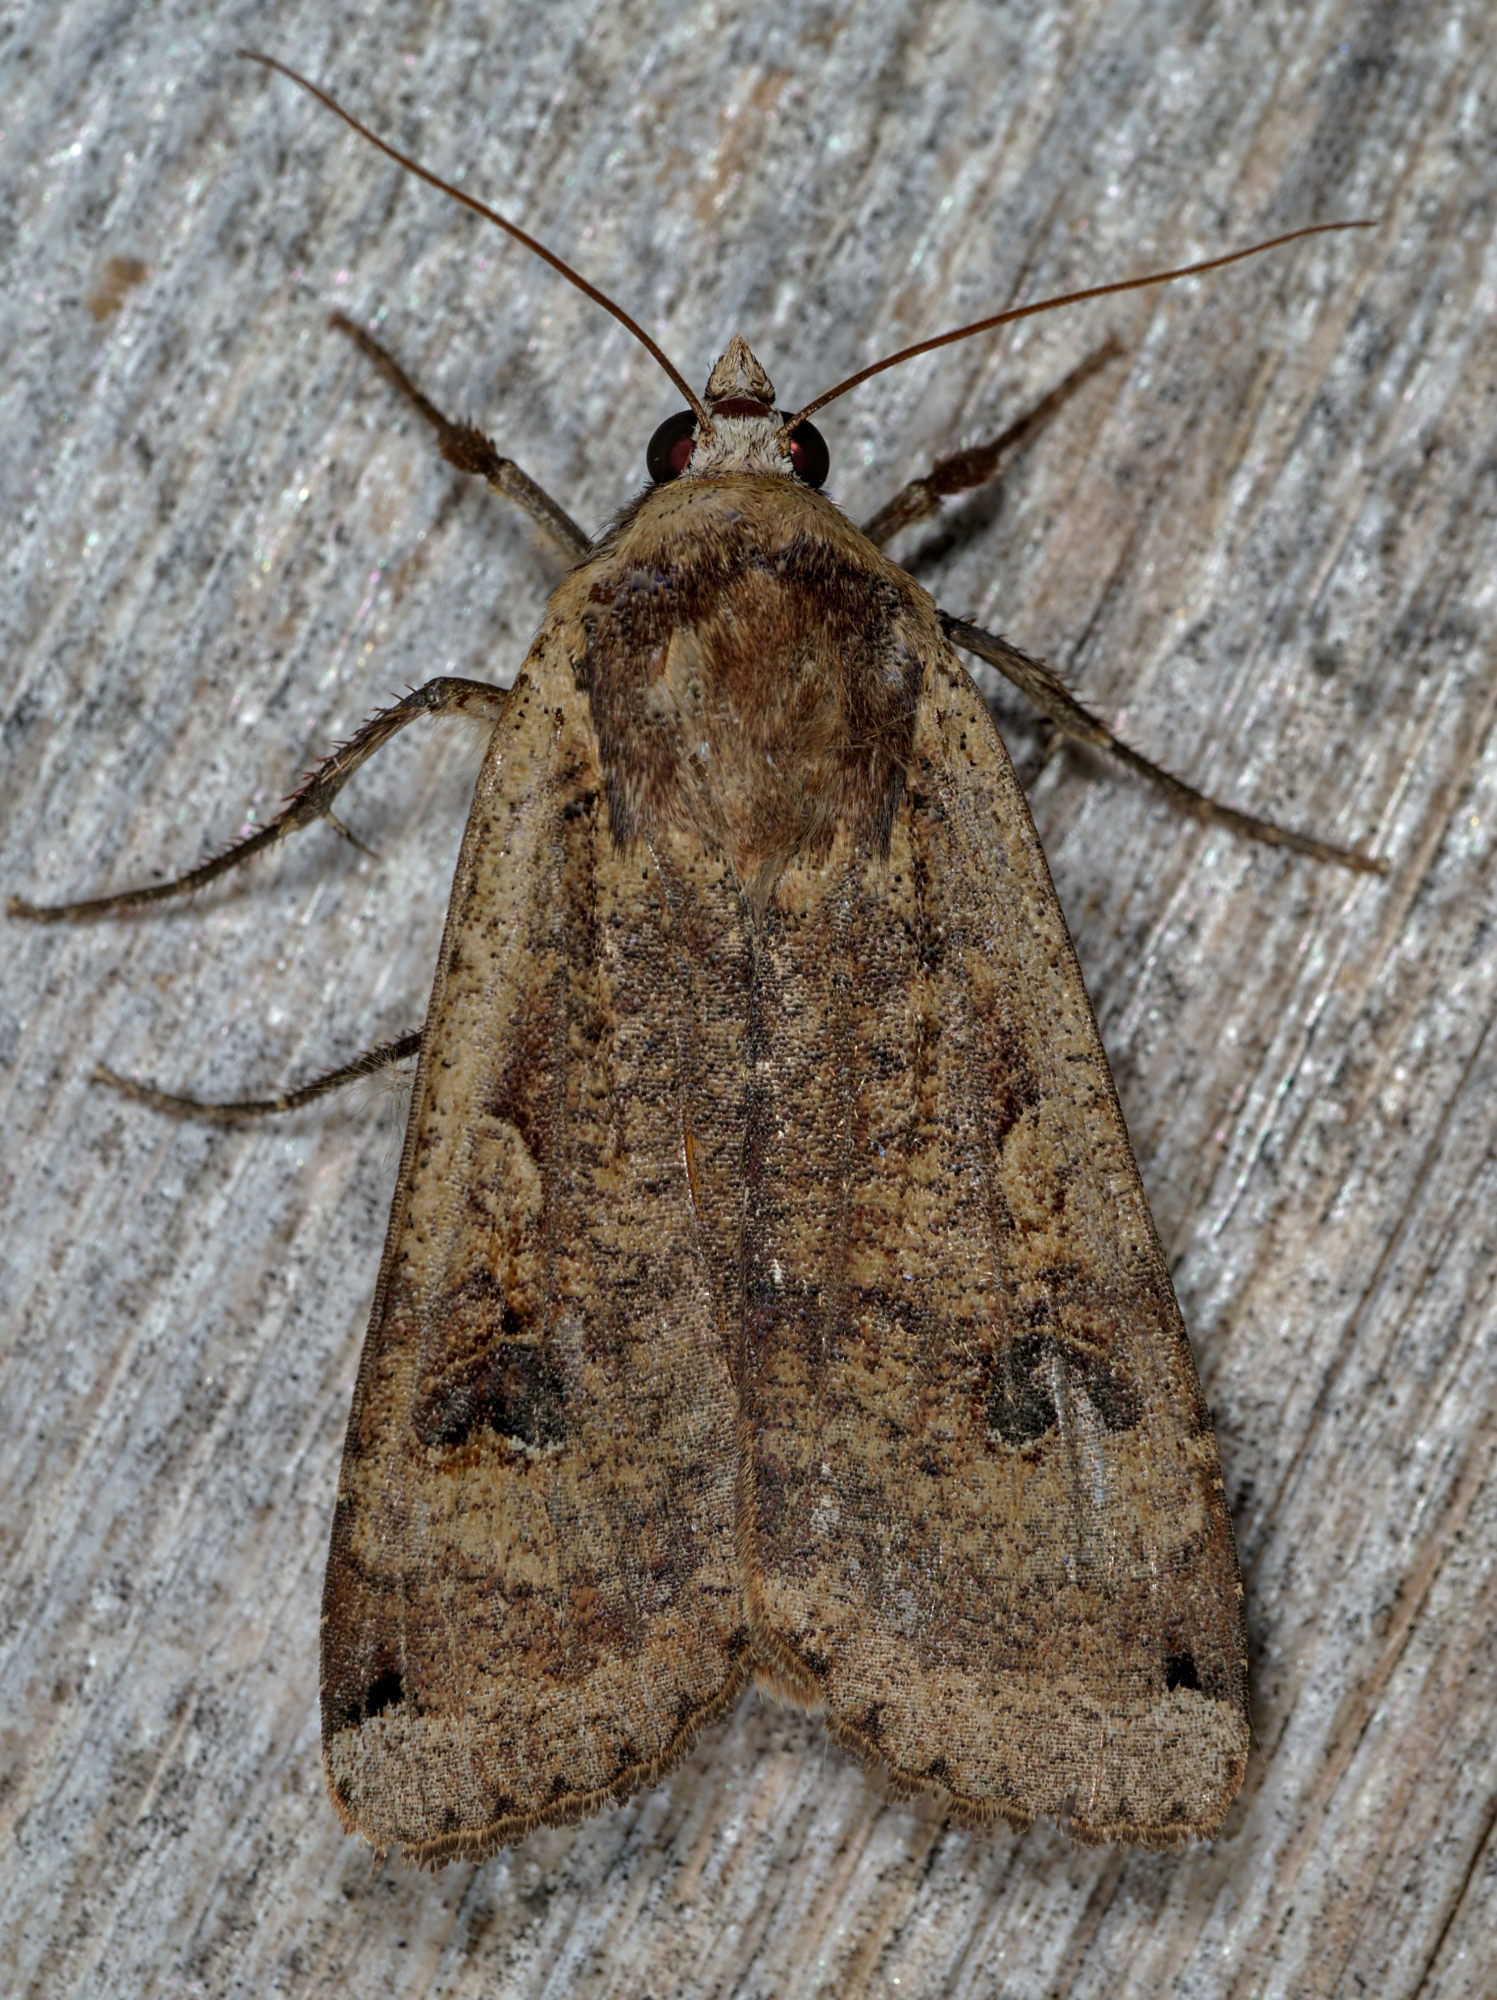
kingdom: Animalia
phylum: Arthropoda
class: Insecta
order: Lepidoptera
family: Noctuidae
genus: Noctua
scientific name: Noctua pronuba
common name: Large yellow underwing
